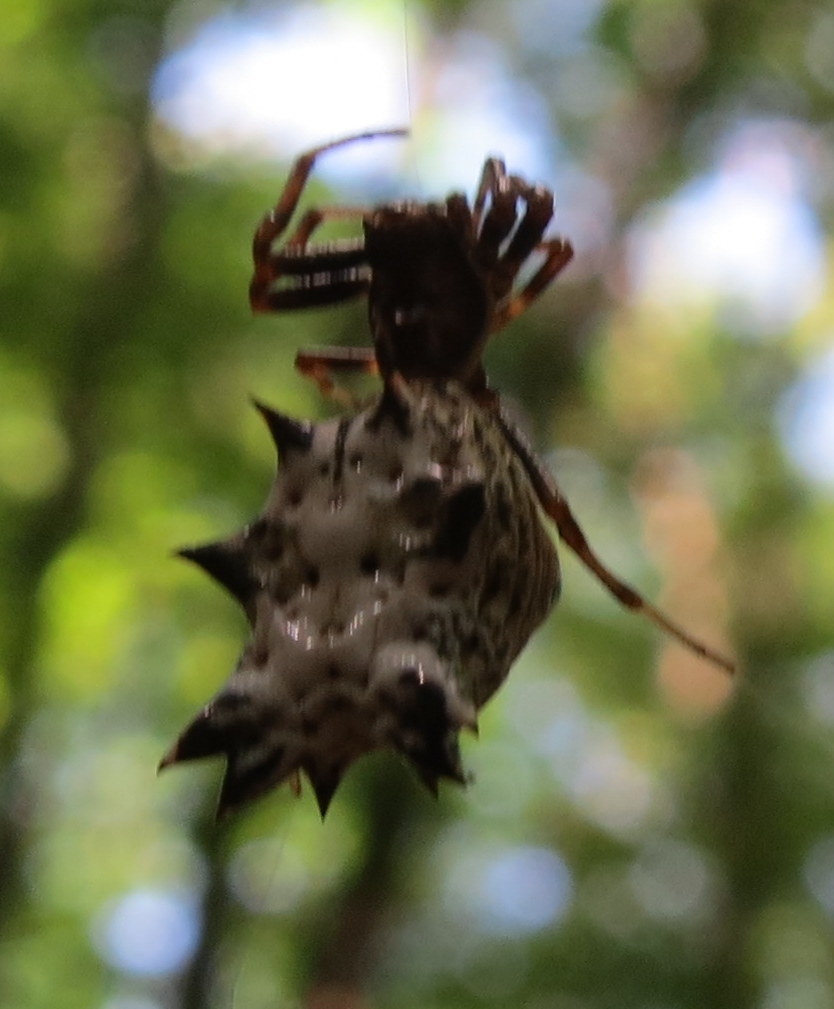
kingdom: Animalia
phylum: Arthropoda
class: Arachnida
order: Araneae
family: Araneidae
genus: Micrathena
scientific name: Micrathena gracilis
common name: Orb weavers
